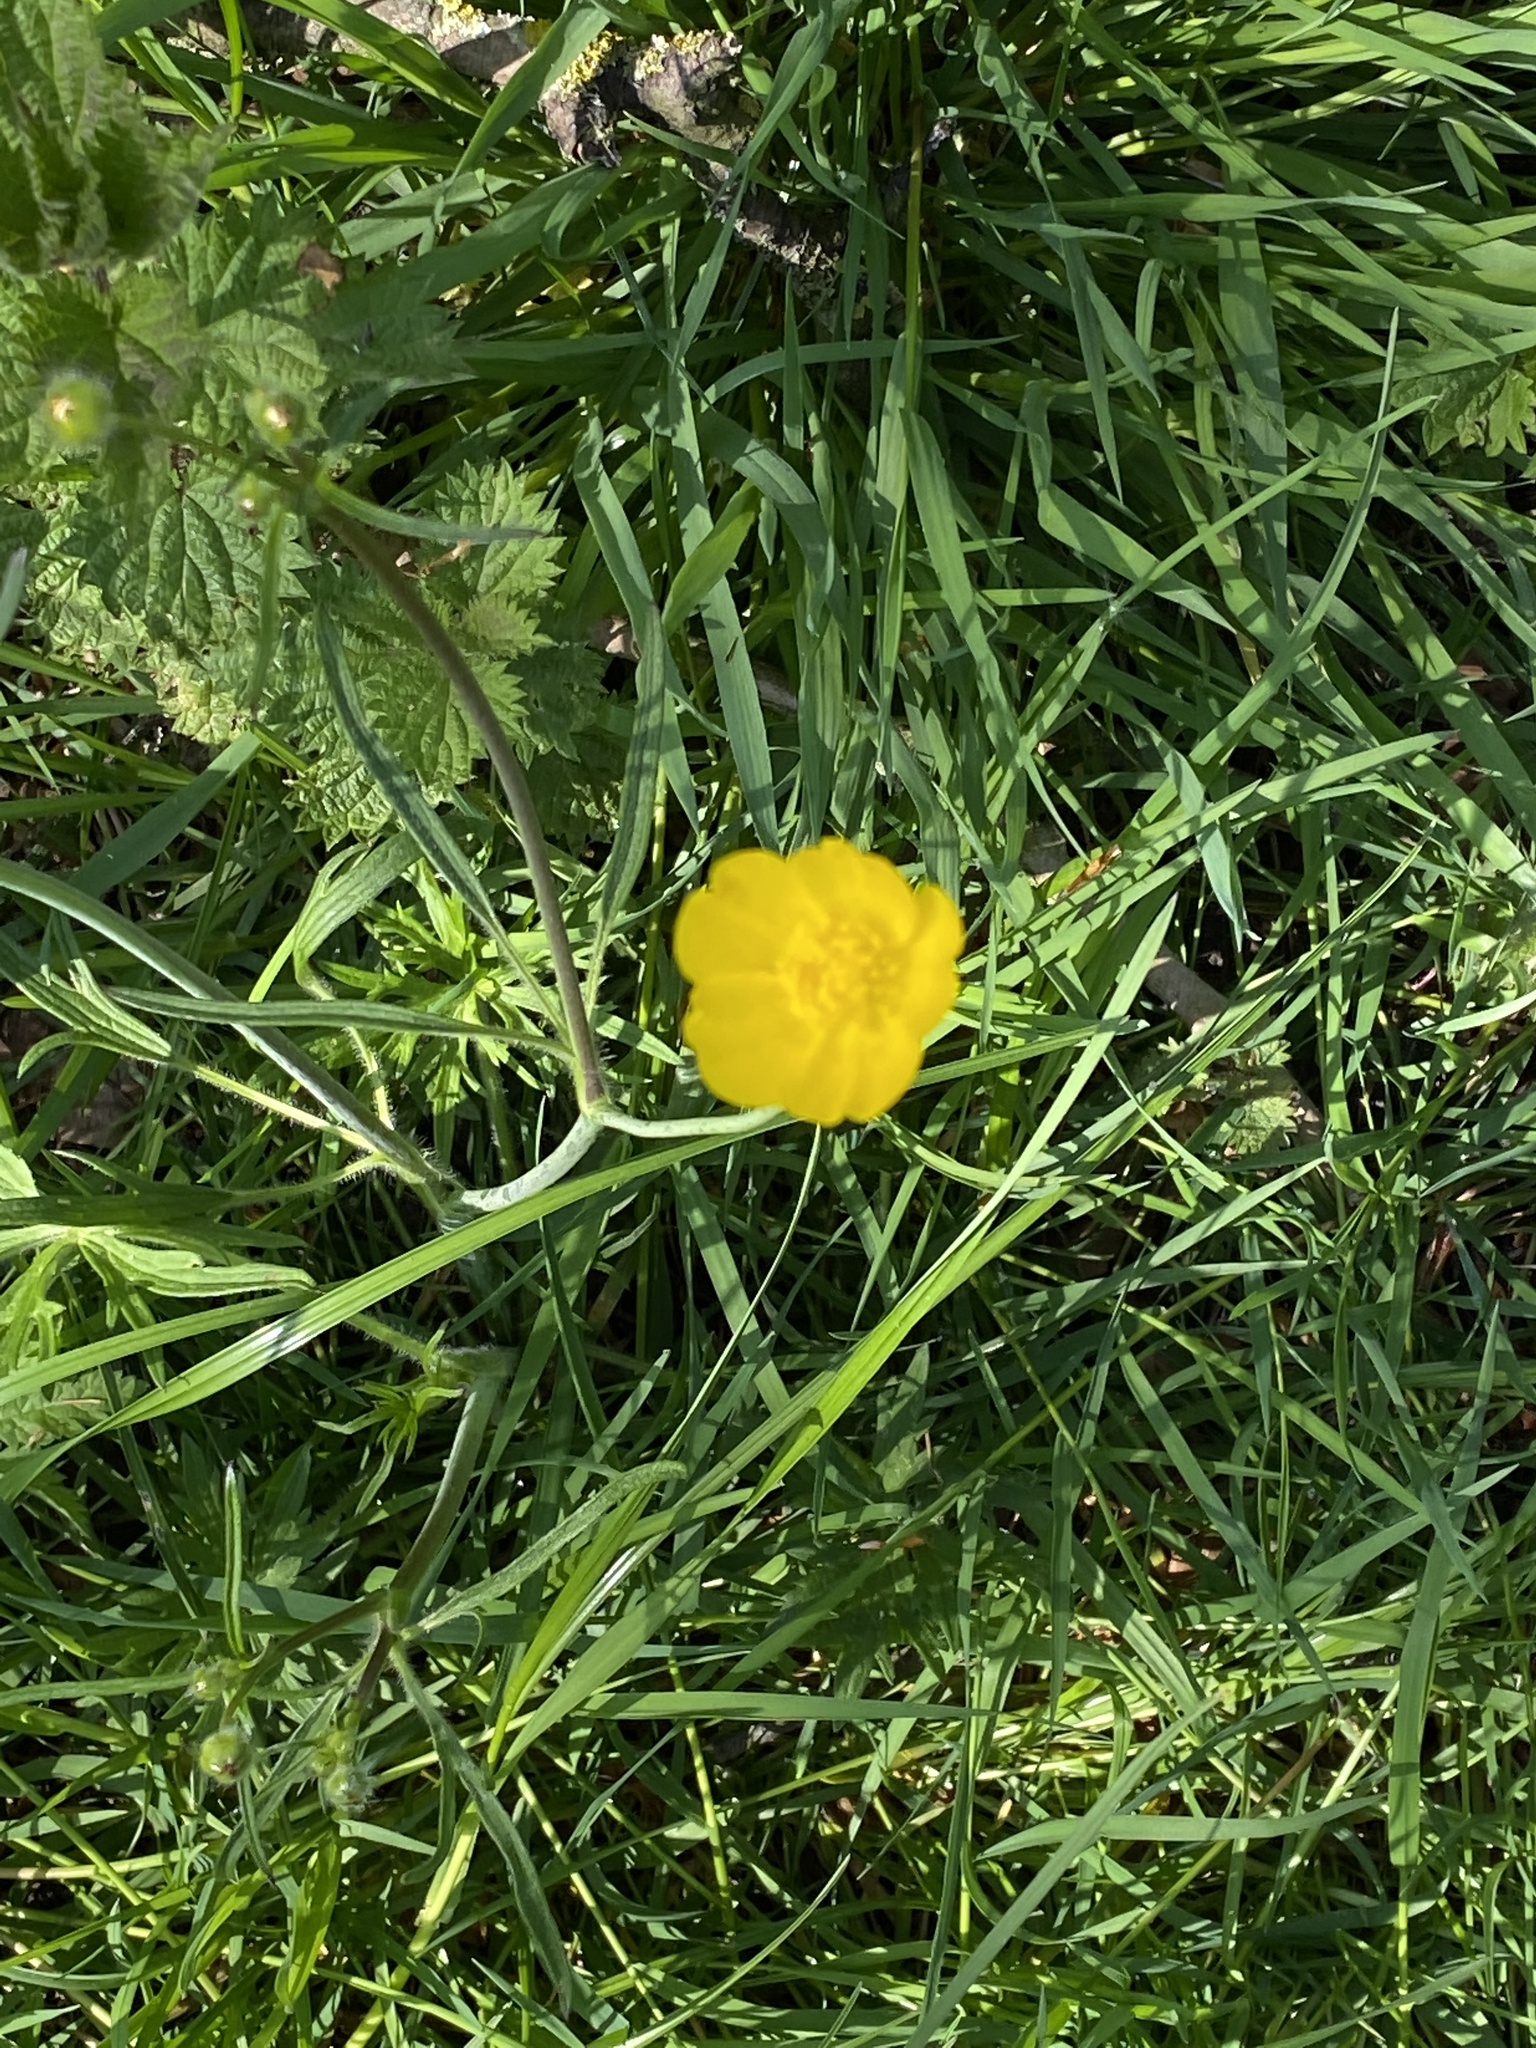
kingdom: Plantae
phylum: Tracheophyta
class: Magnoliopsida
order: Ranunculales
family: Ranunculaceae
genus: Ranunculus
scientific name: Ranunculus acris
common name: Meadow buttercup
